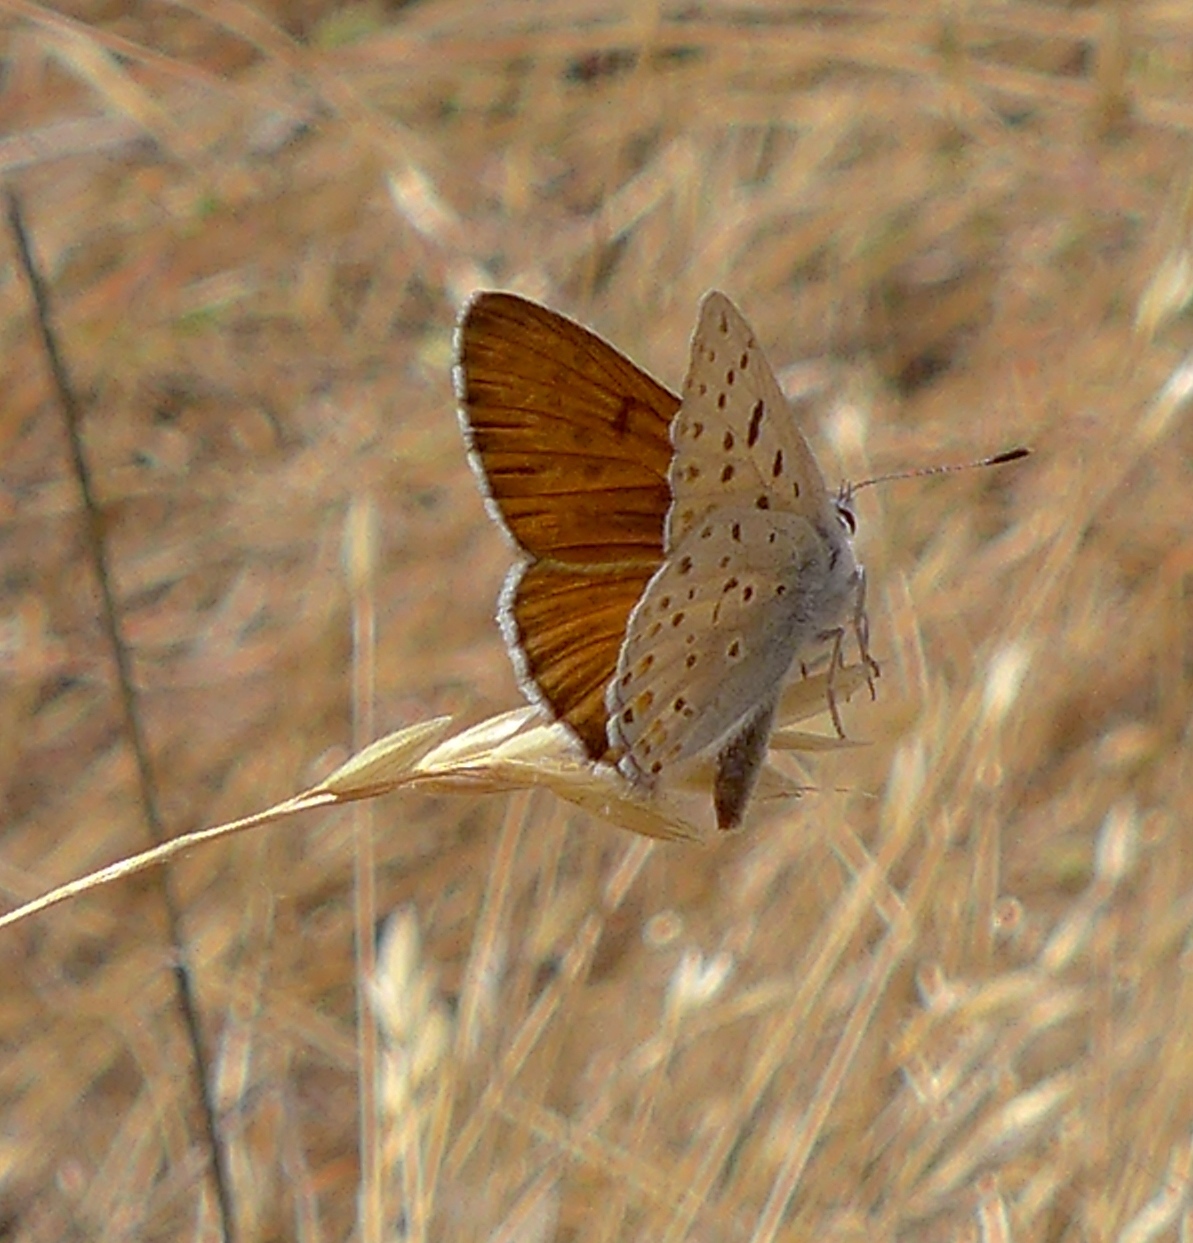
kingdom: Animalia
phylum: Arthropoda
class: Insecta
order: Lepidoptera
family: Lycaenidae
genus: Tharsalea
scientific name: Tharsalea gorgon
